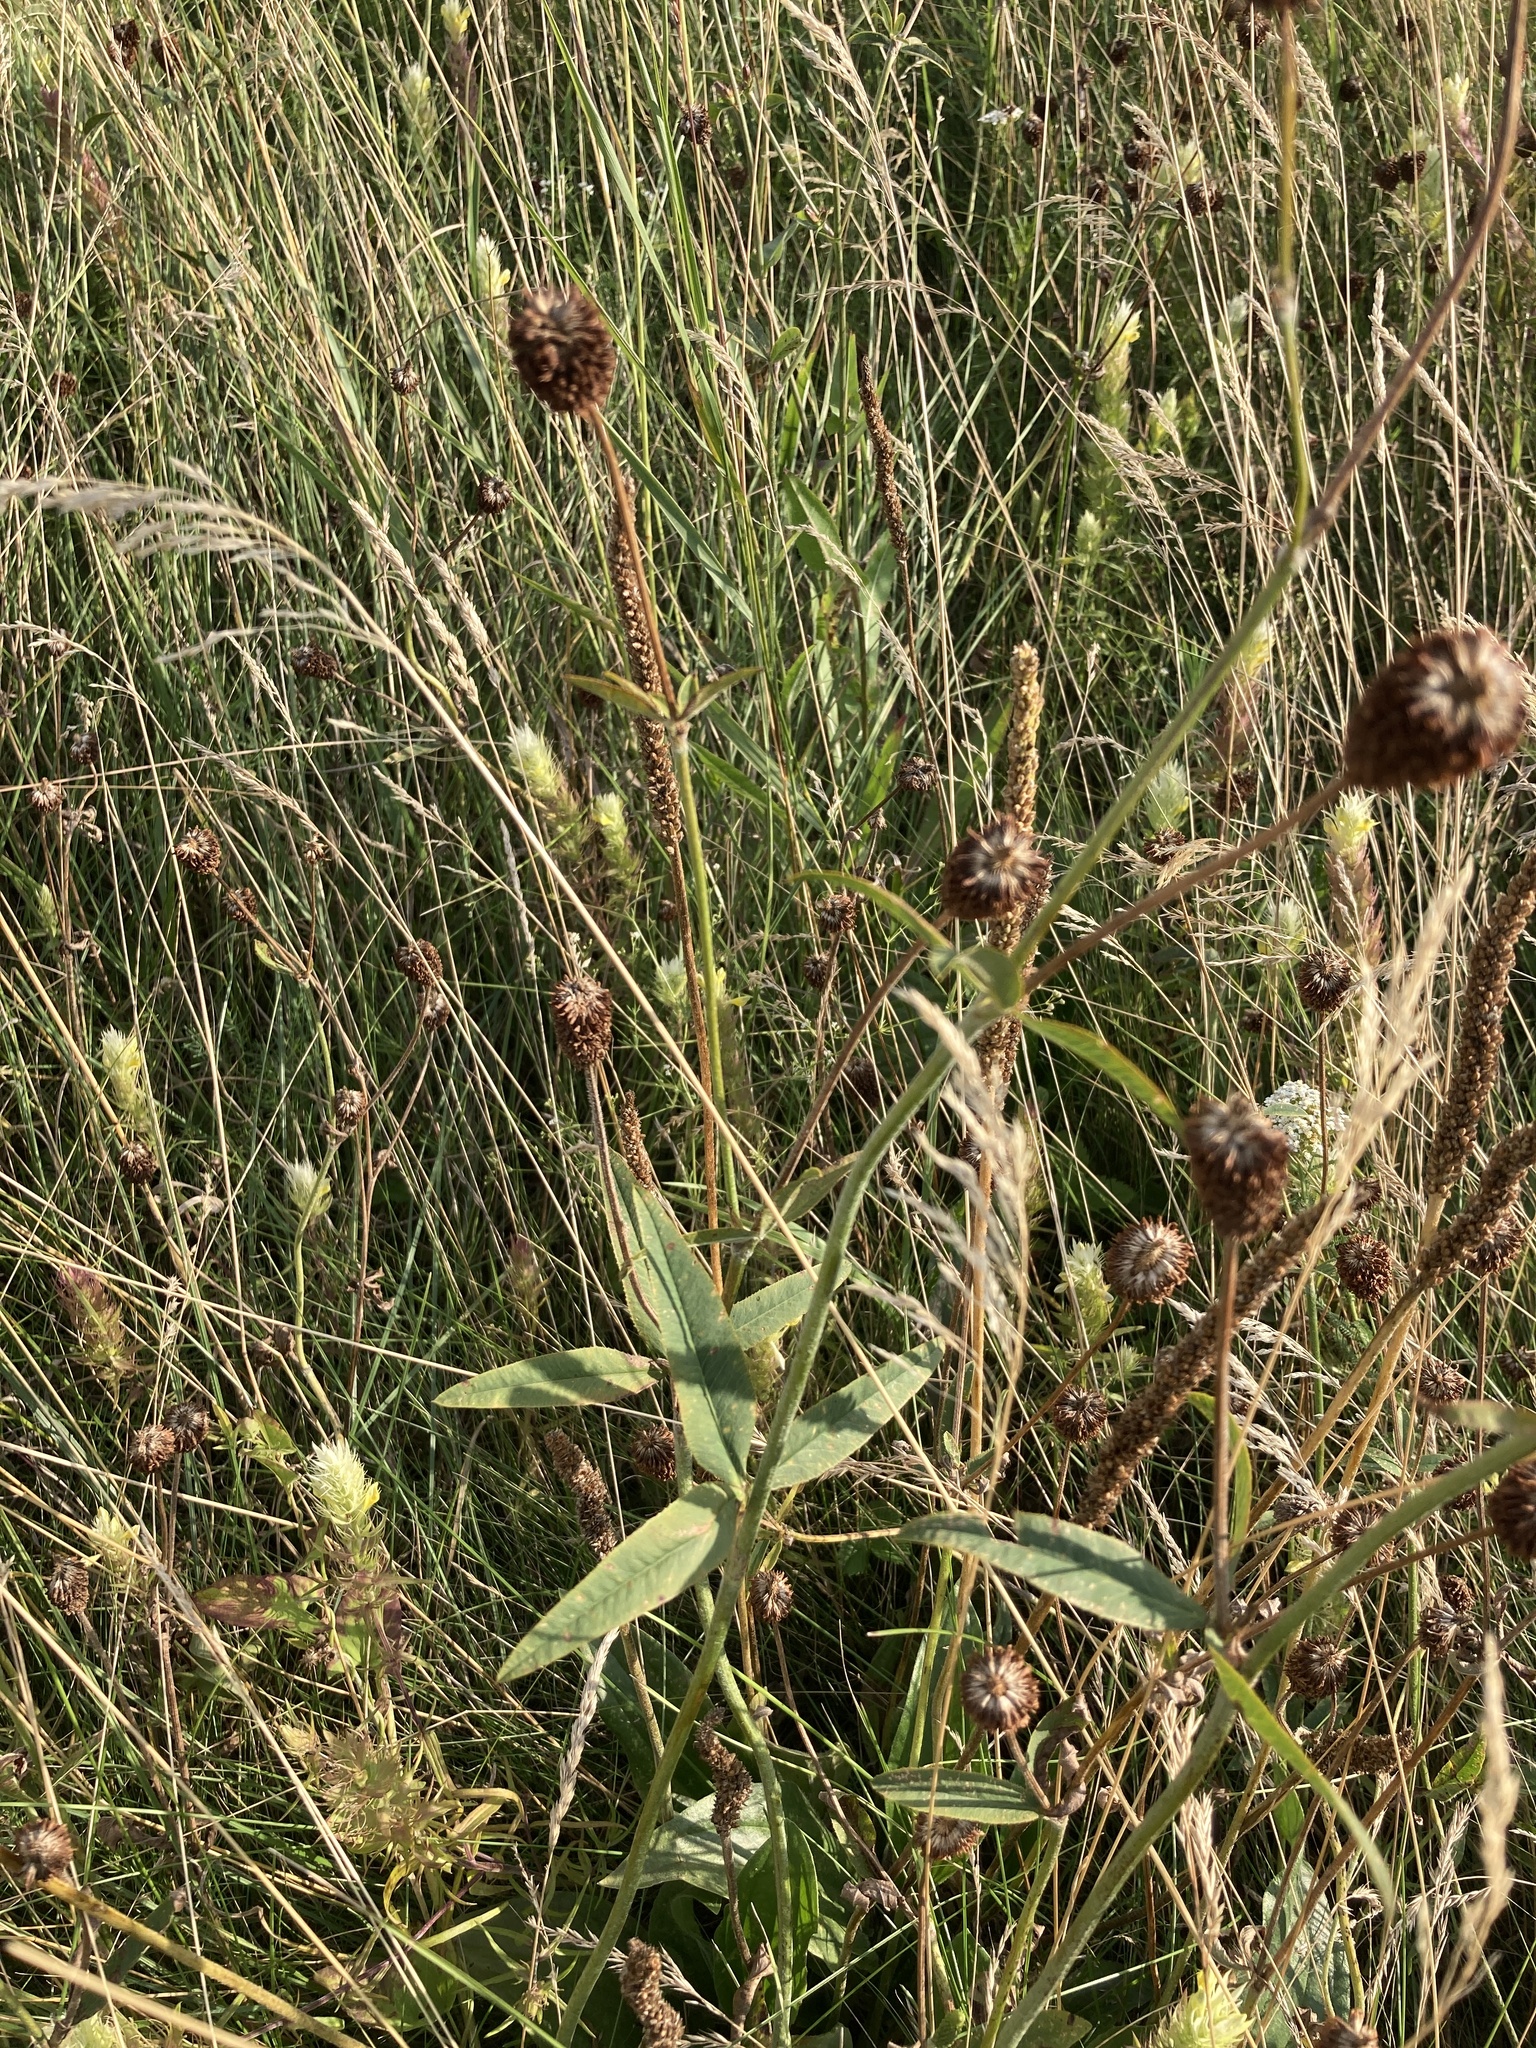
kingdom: Plantae
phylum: Tracheophyta
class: Magnoliopsida
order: Fabales
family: Fabaceae
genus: Trifolium
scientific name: Trifolium montanum
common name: Mountain clover
